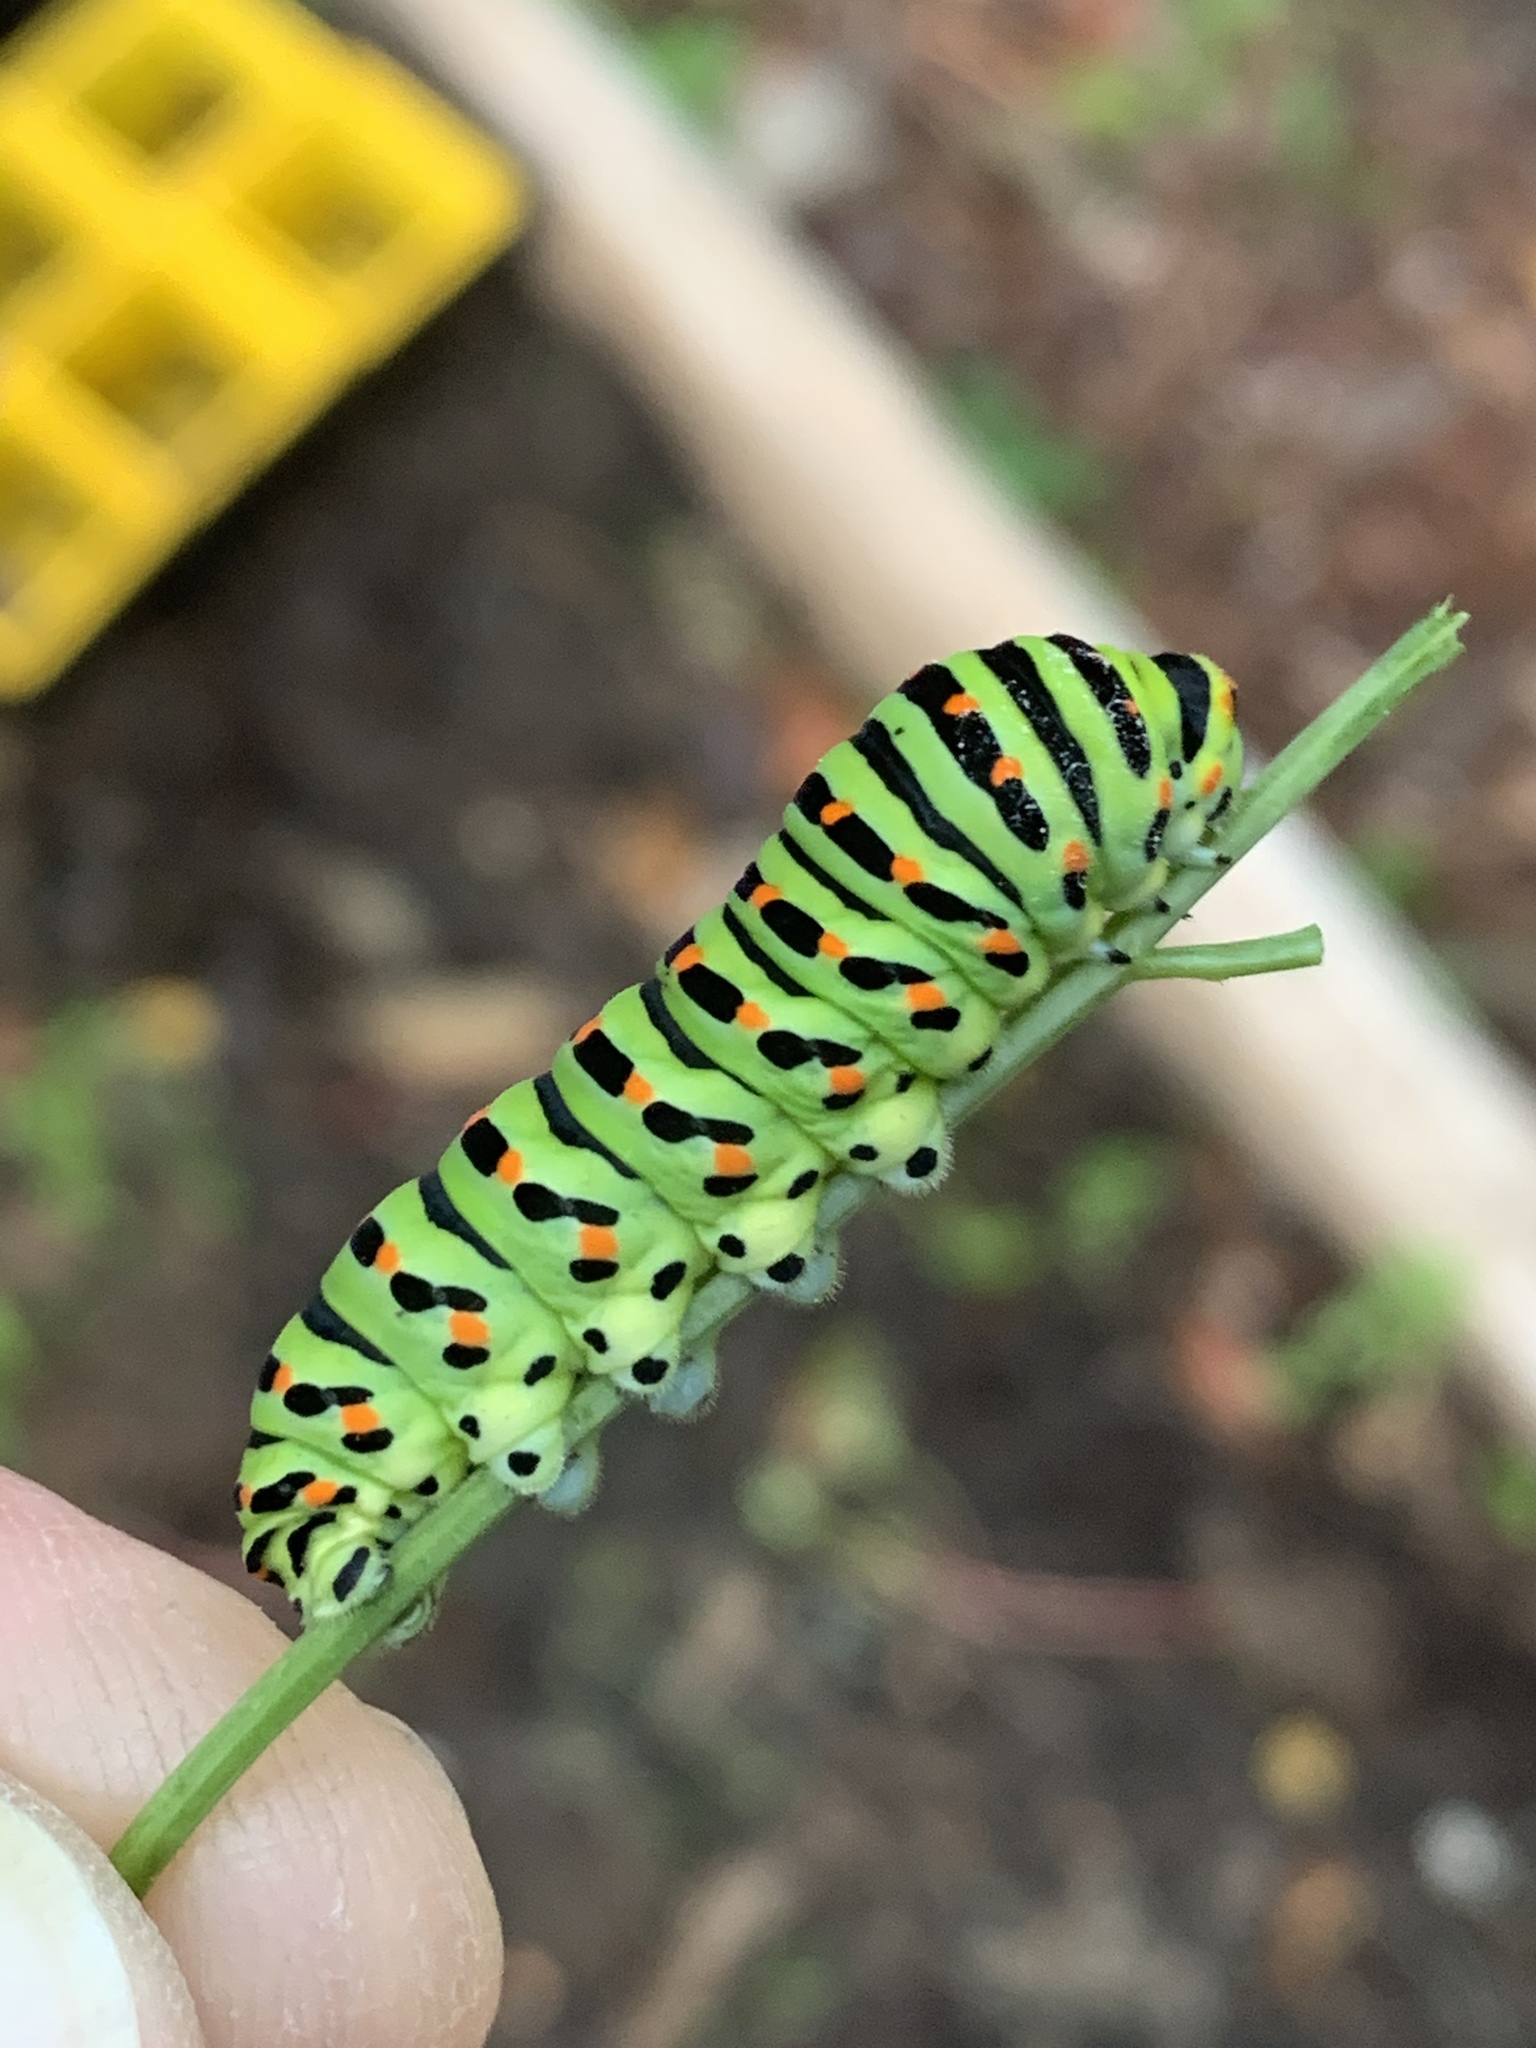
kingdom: Animalia
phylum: Arthropoda
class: Insecta
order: Lepidoptera
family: Papilionidae
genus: Papilio
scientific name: Papilio machaon
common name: Swallowtail
